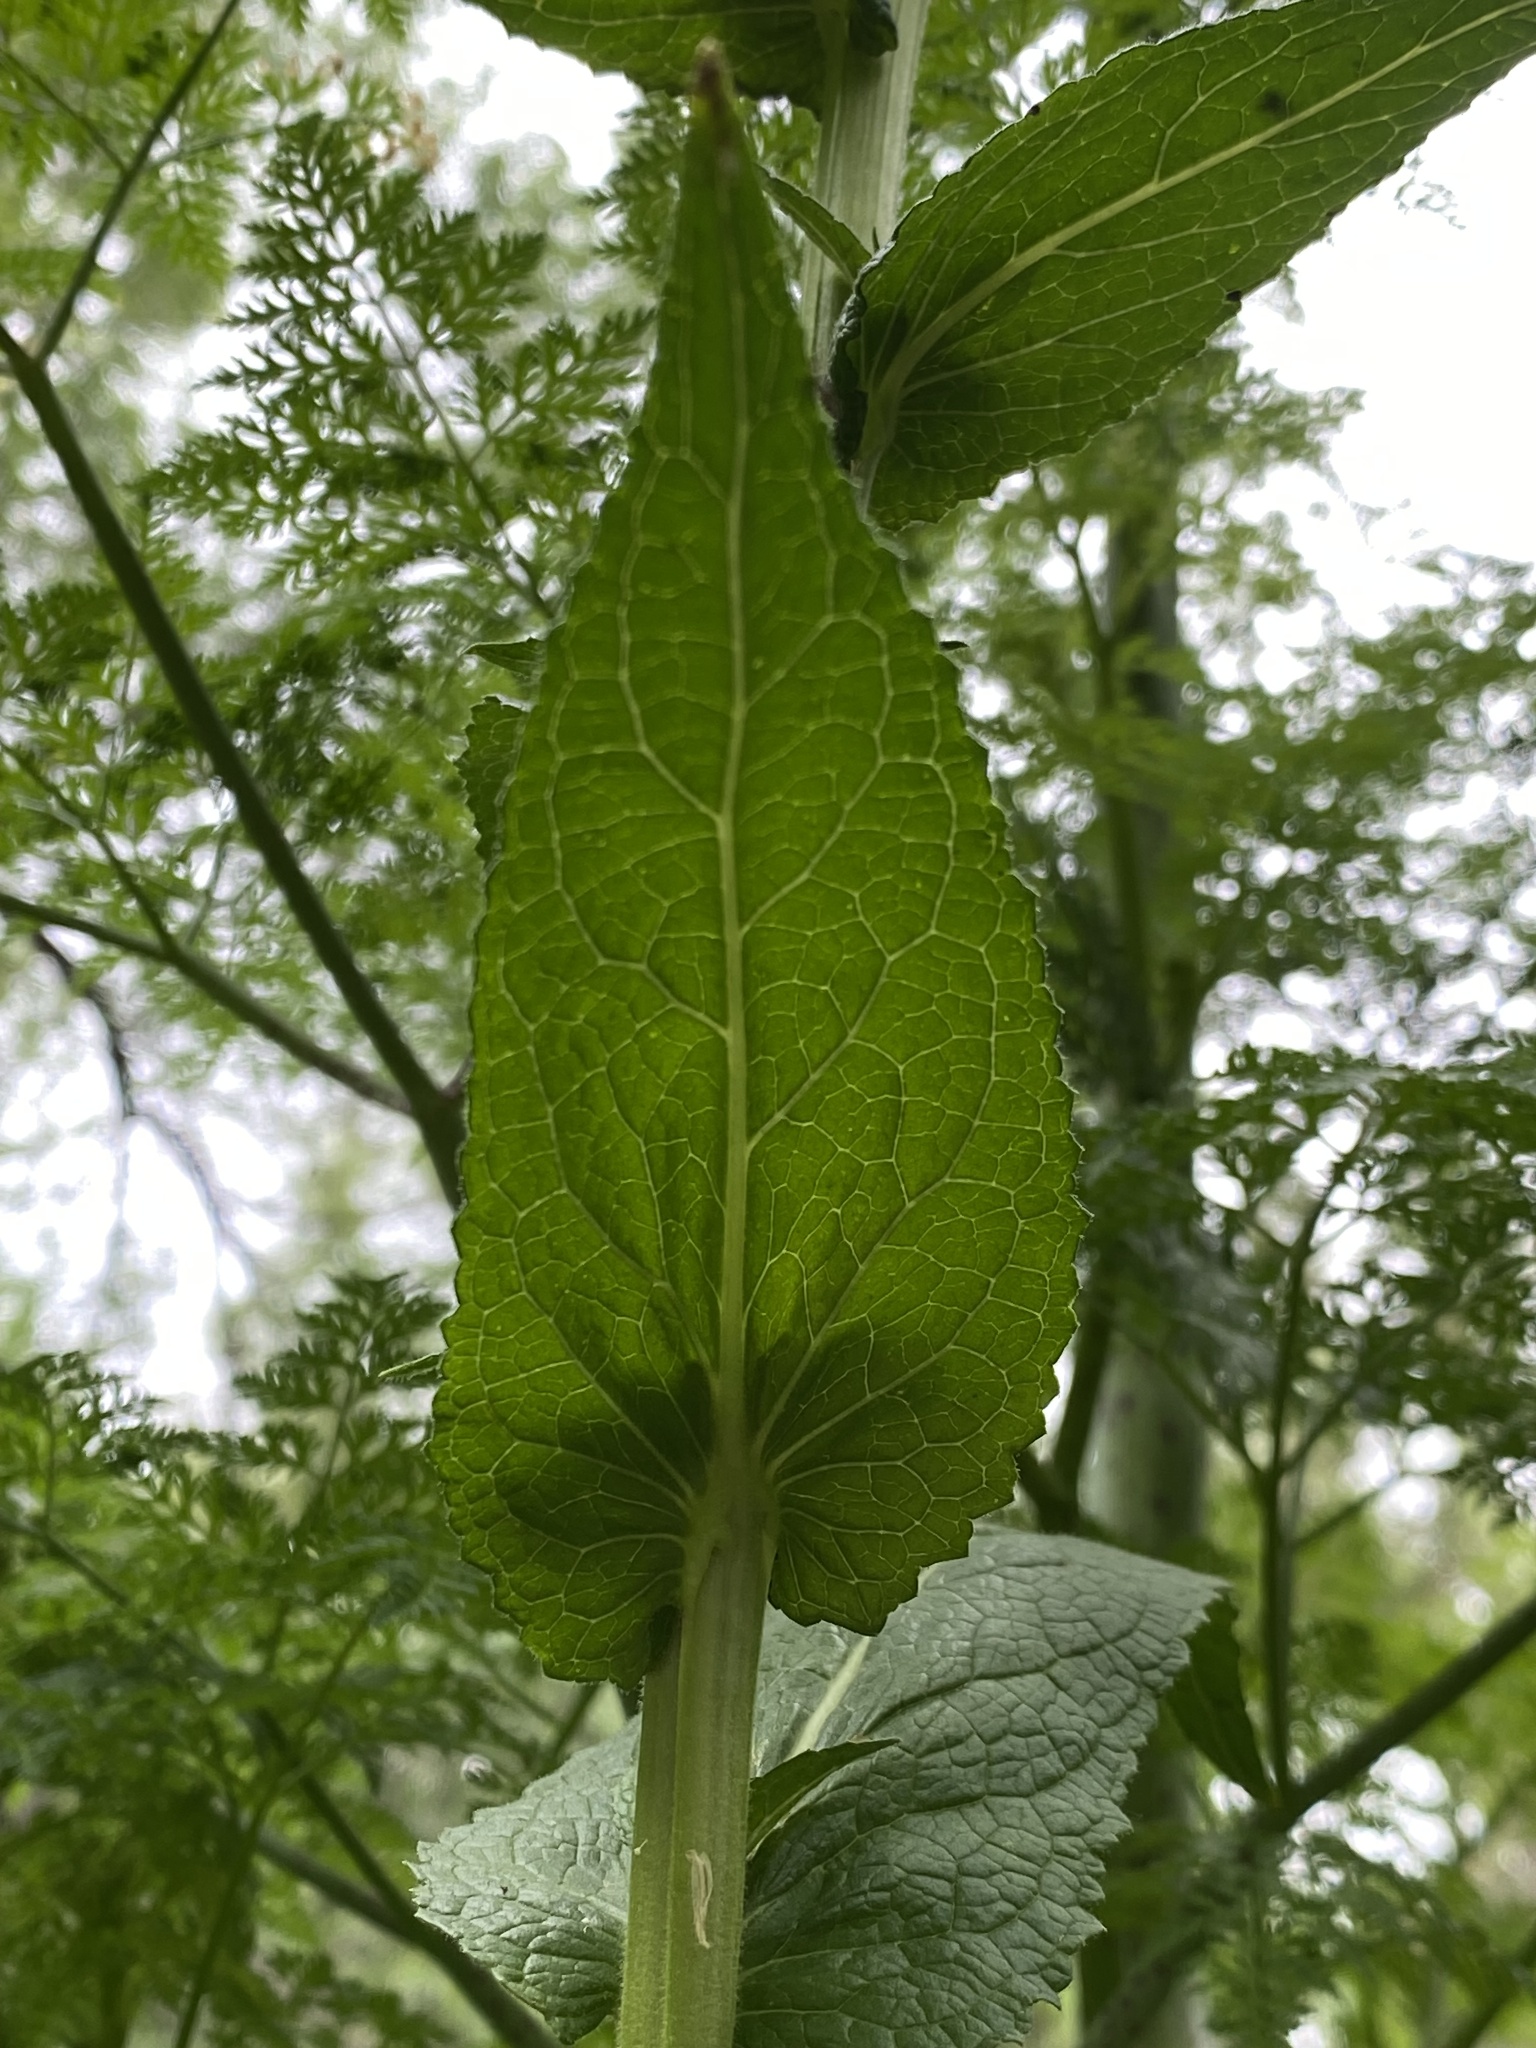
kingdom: Plantae
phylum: Tracheophyta
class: Magnoliopsida
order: Lamiales
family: Scrophulariaceae
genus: Verbascum
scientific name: Verbascum virgatum
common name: Twiggy mullein
